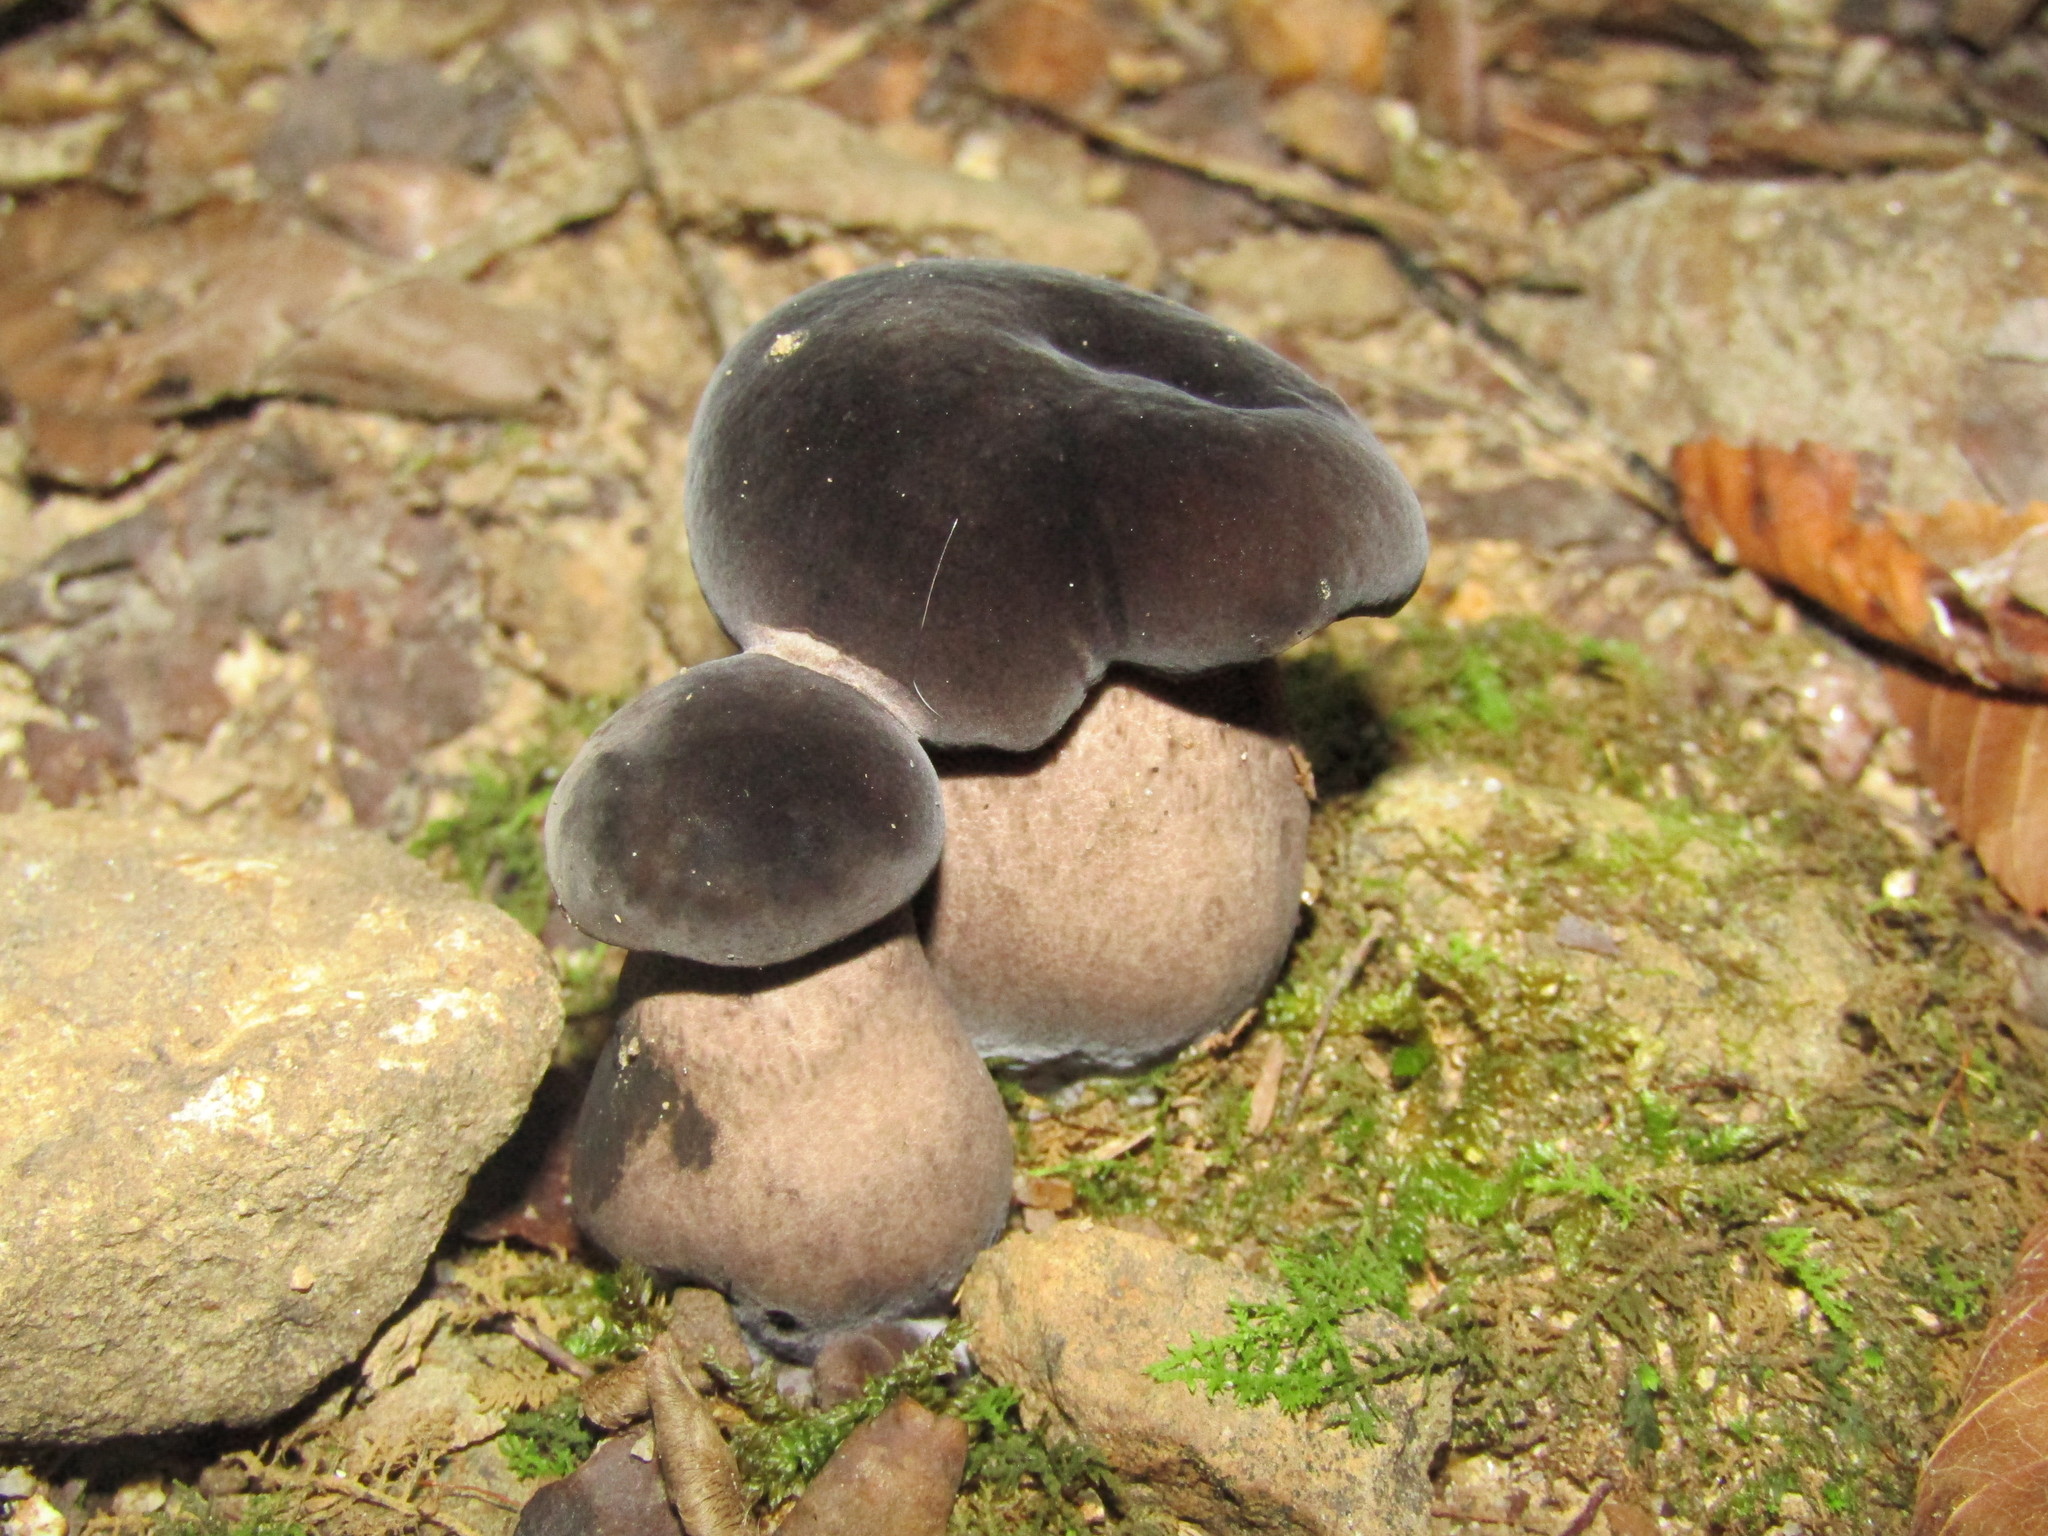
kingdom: Fungi
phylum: Basidiomycota
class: Agaricomycetes
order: Boletales
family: Boletaceae
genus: Tylopilus
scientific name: Tylopilus alboater
